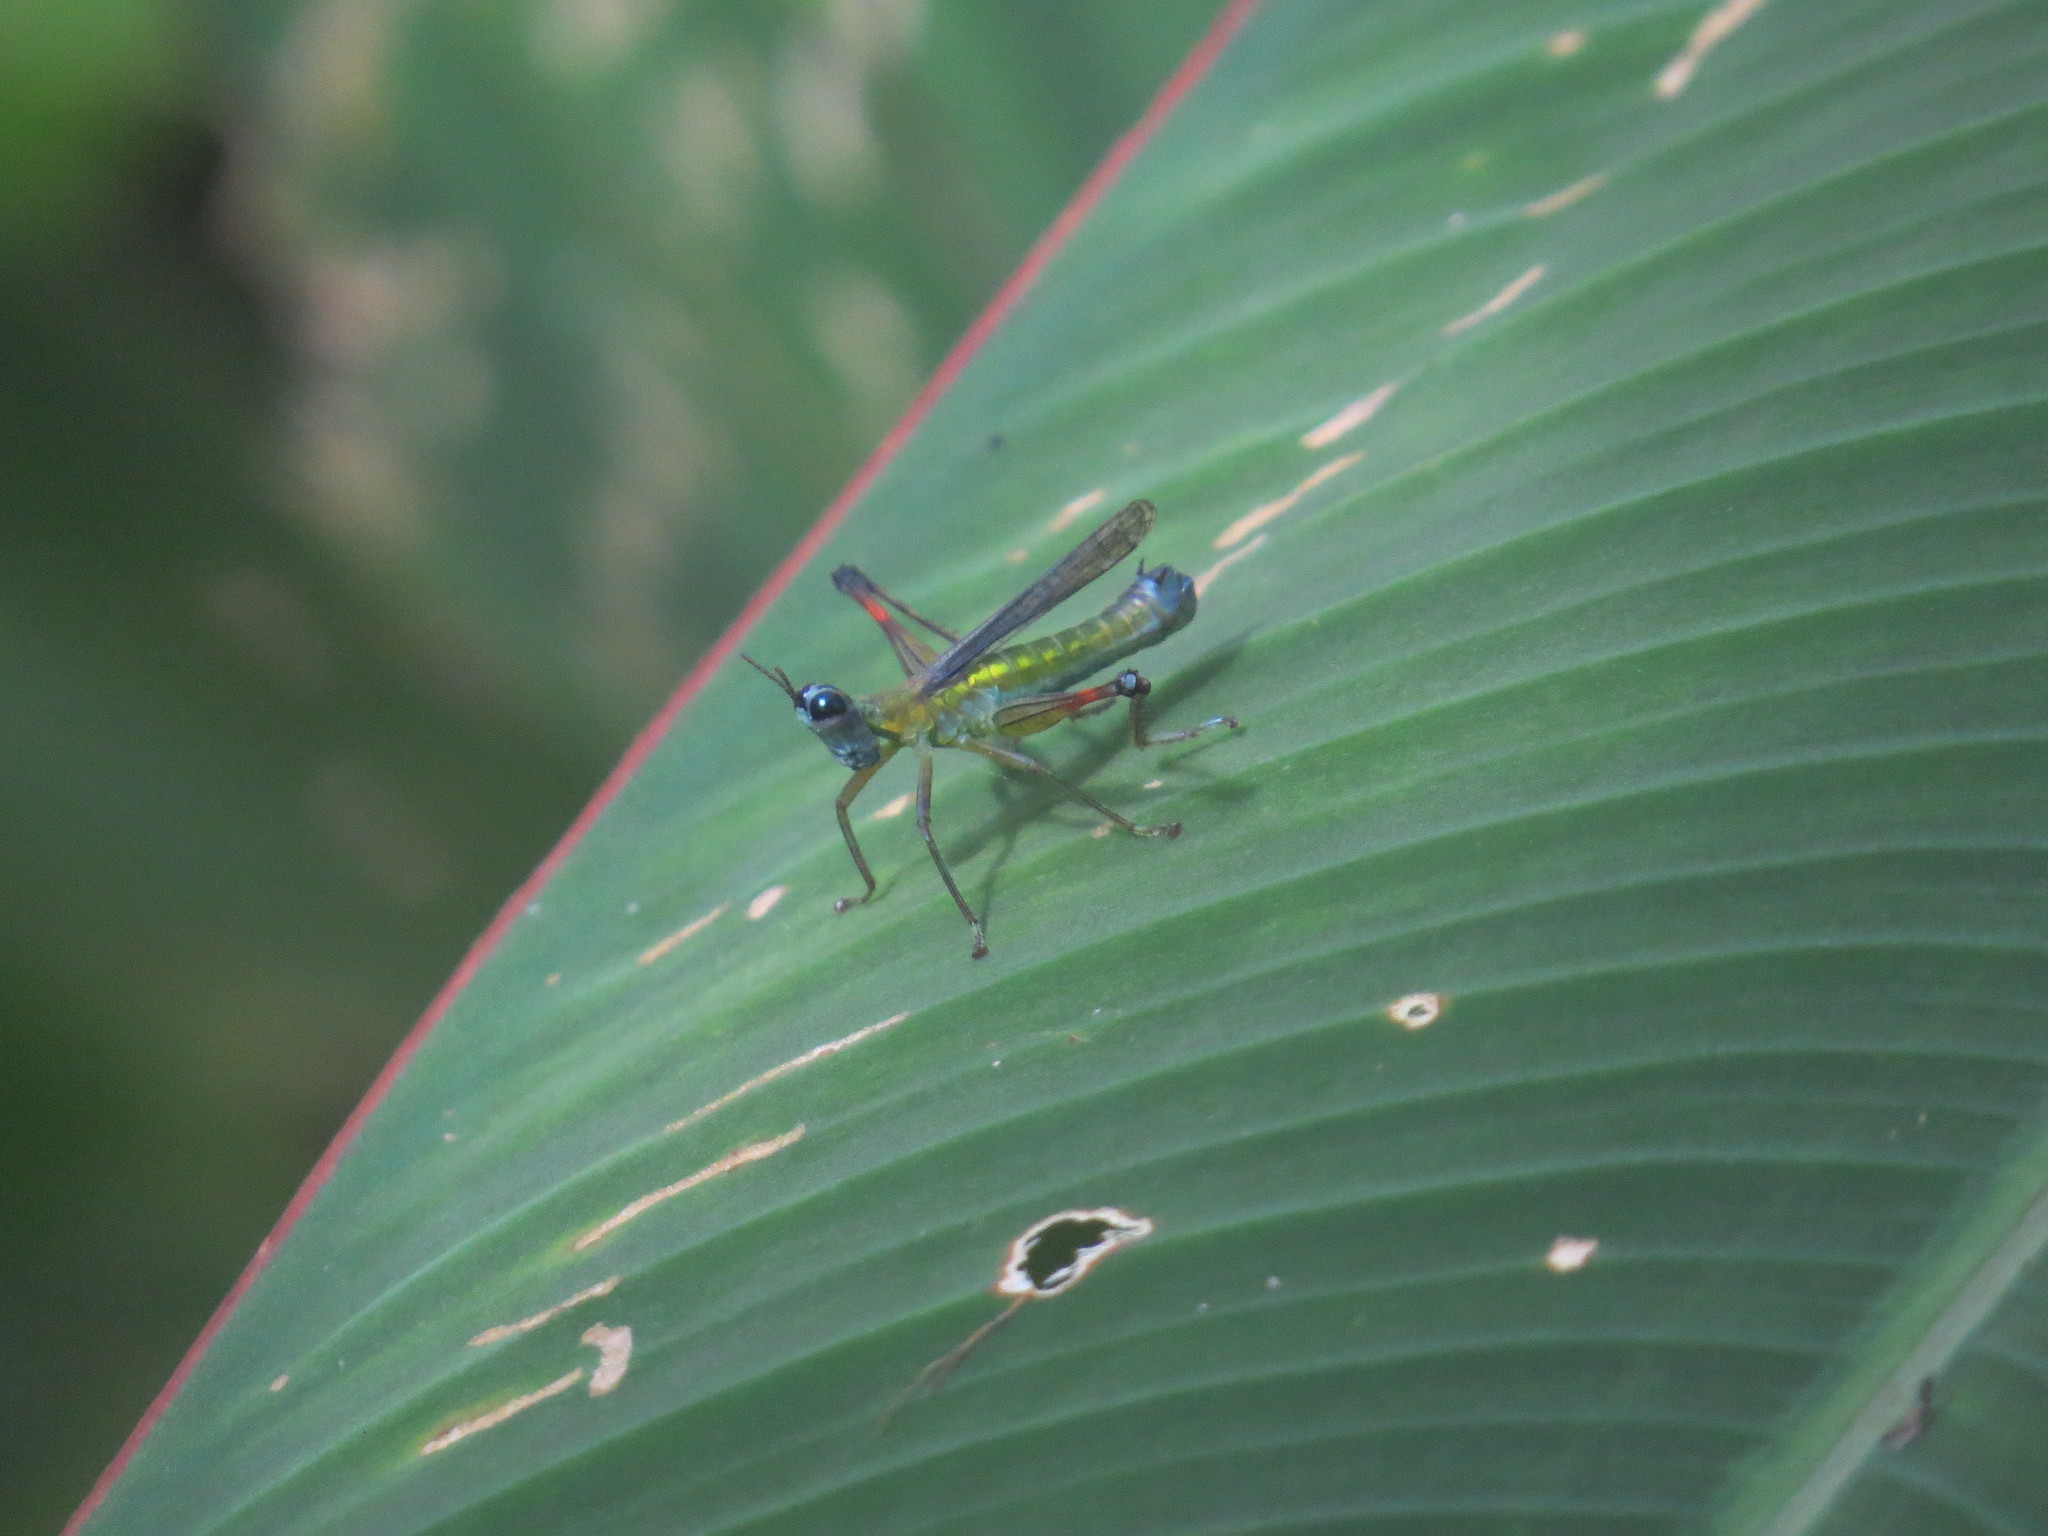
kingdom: Animalia
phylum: Arthropoda
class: Insecta
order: Orthoptera
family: Eumastacidae
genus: Homeomastax
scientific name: Homeomastax robertsi
